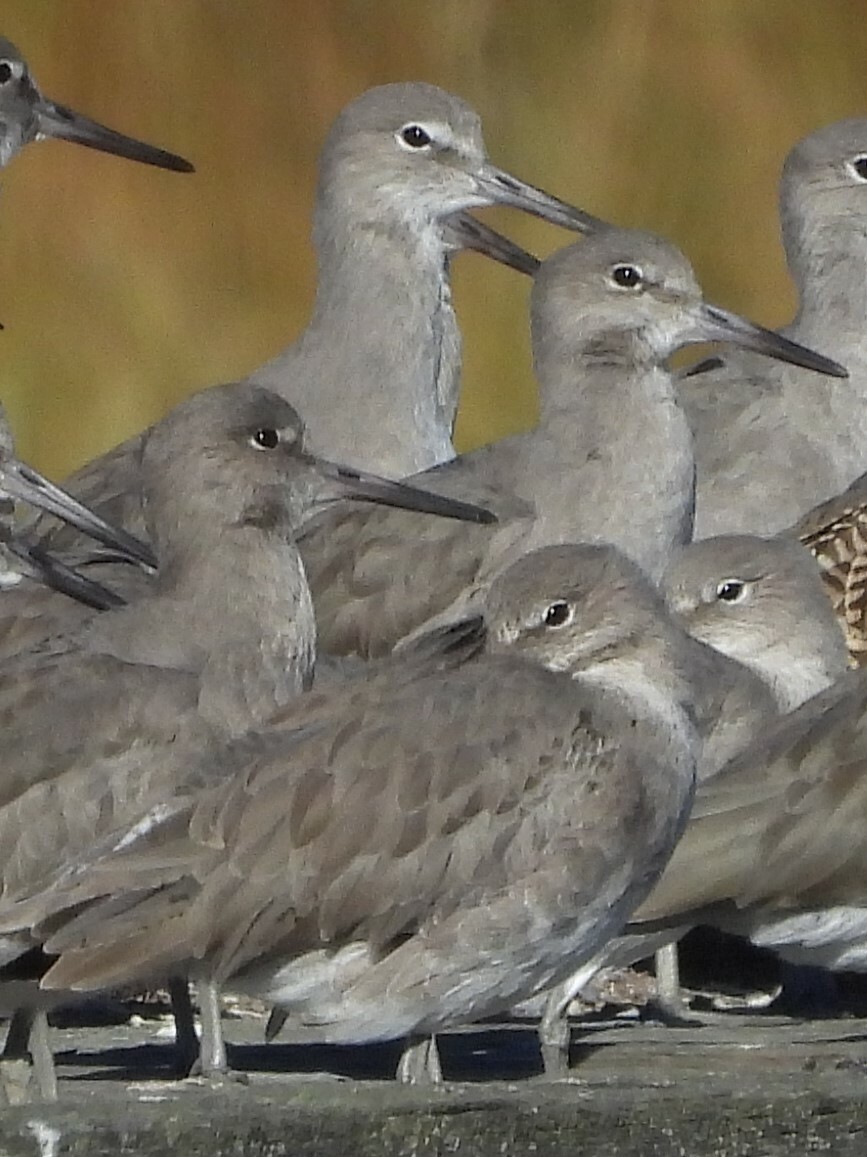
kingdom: Animalia
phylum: Chordata
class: Aves
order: Charadriiformes
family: Scolopacidae
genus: Tringa
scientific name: Tringa semipalmata
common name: Willet
